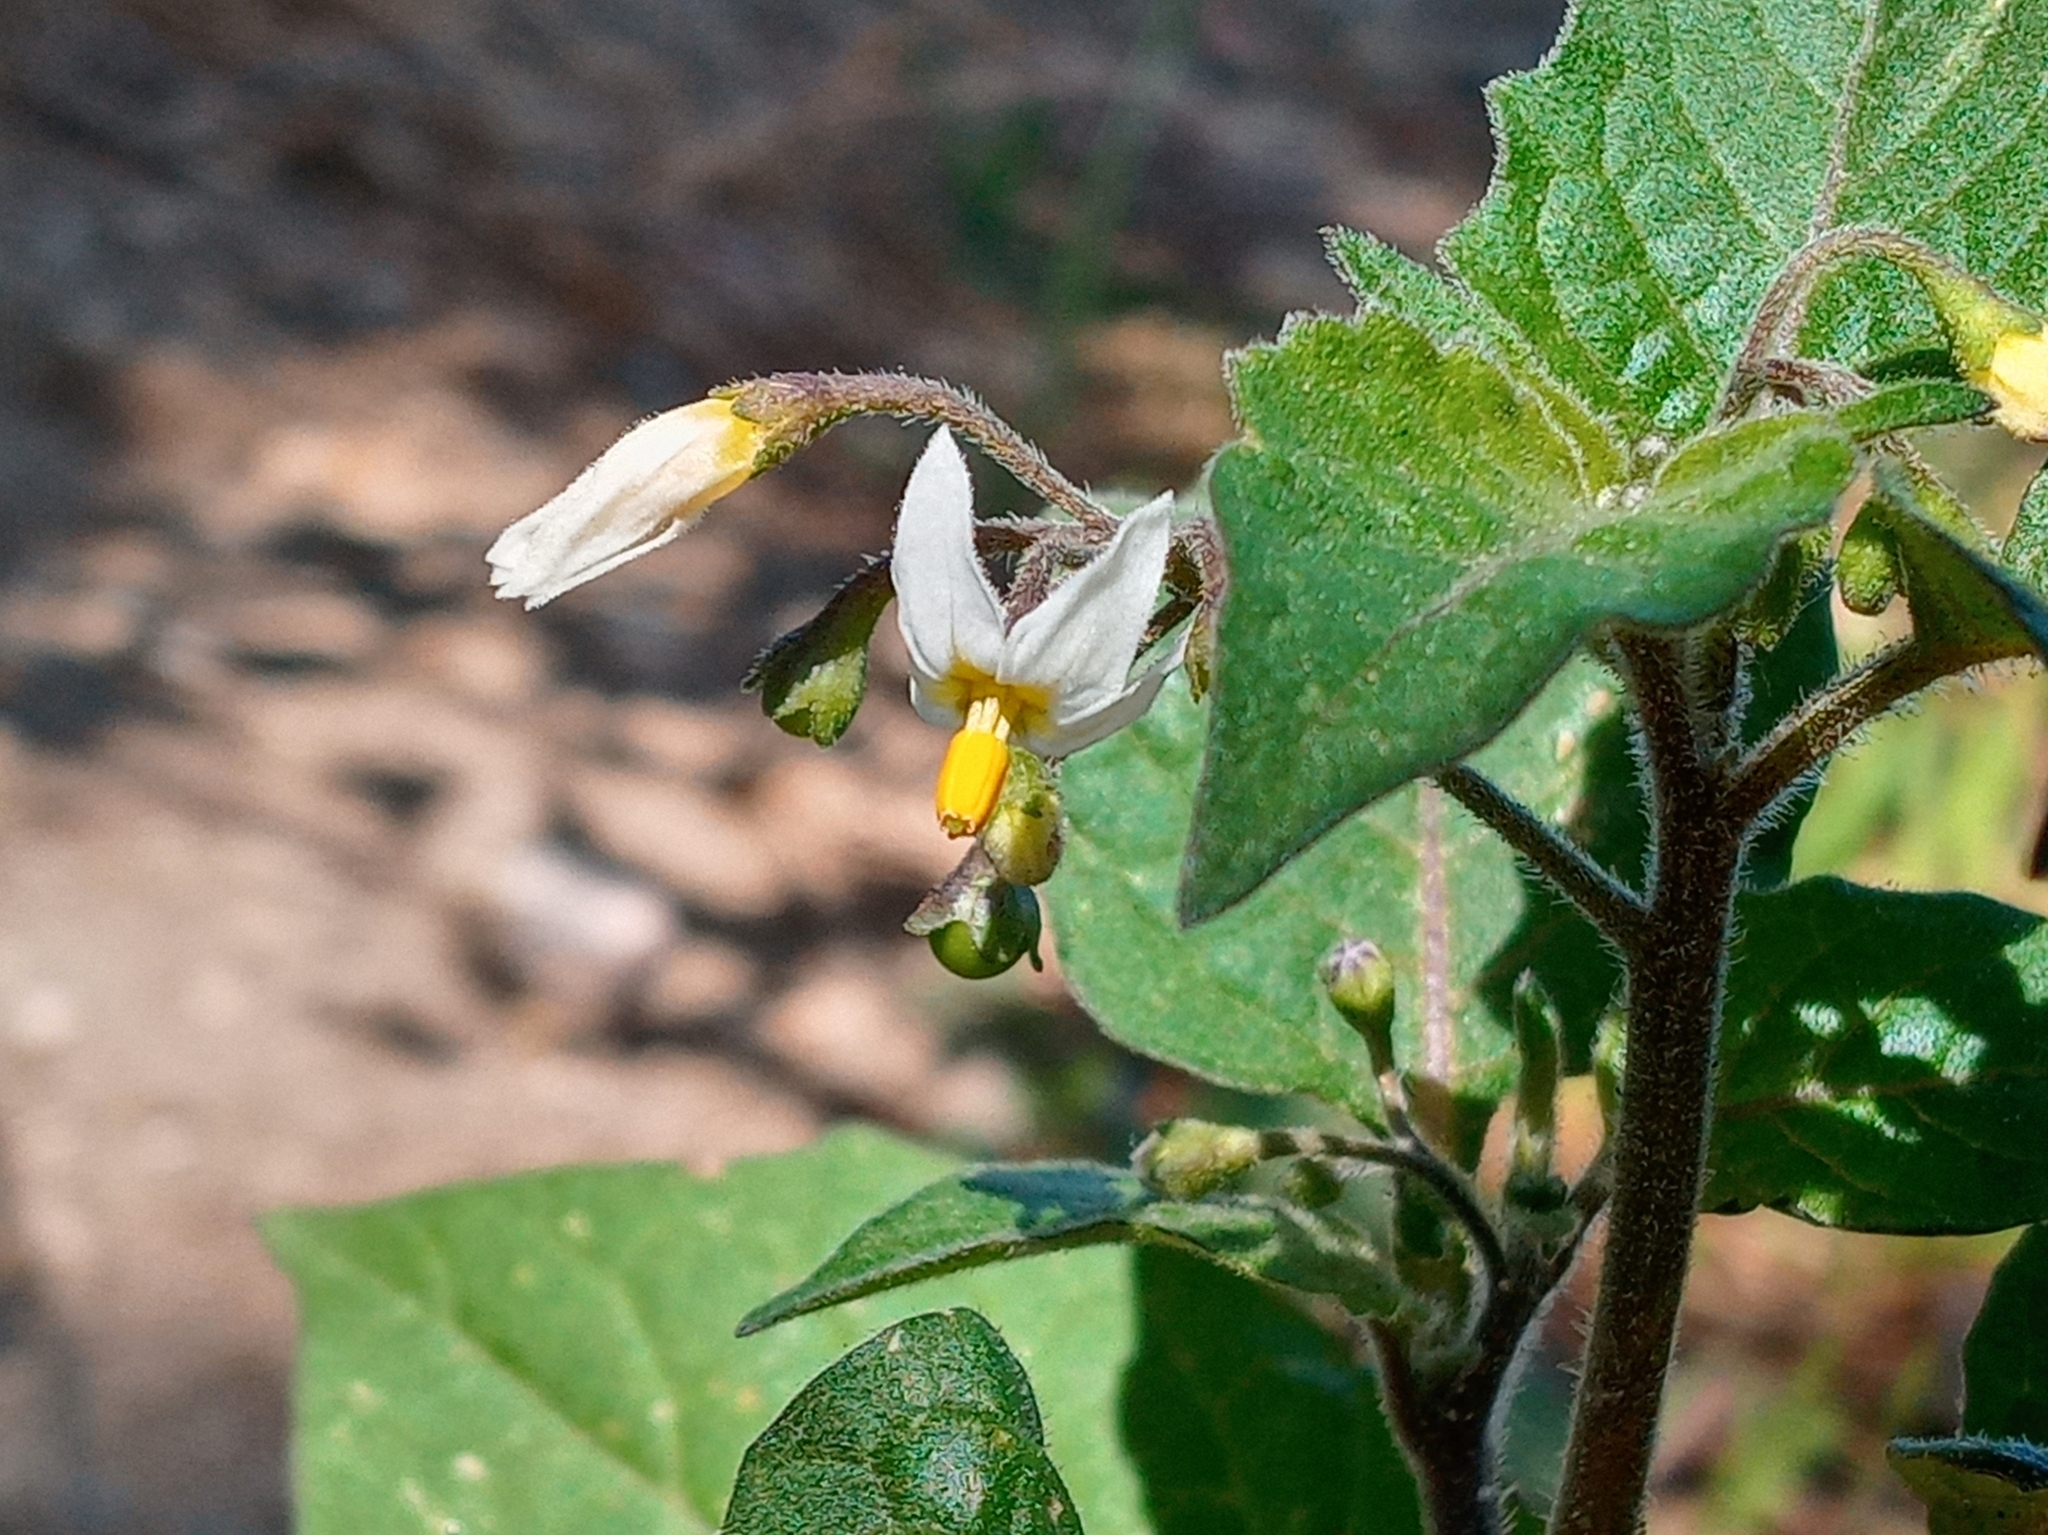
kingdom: Plantae
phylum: Tracheophyta
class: Magnoliopsida
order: Solanales
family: Solanaceae
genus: Solanum
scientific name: Solanum nigrum
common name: Black nightshade
